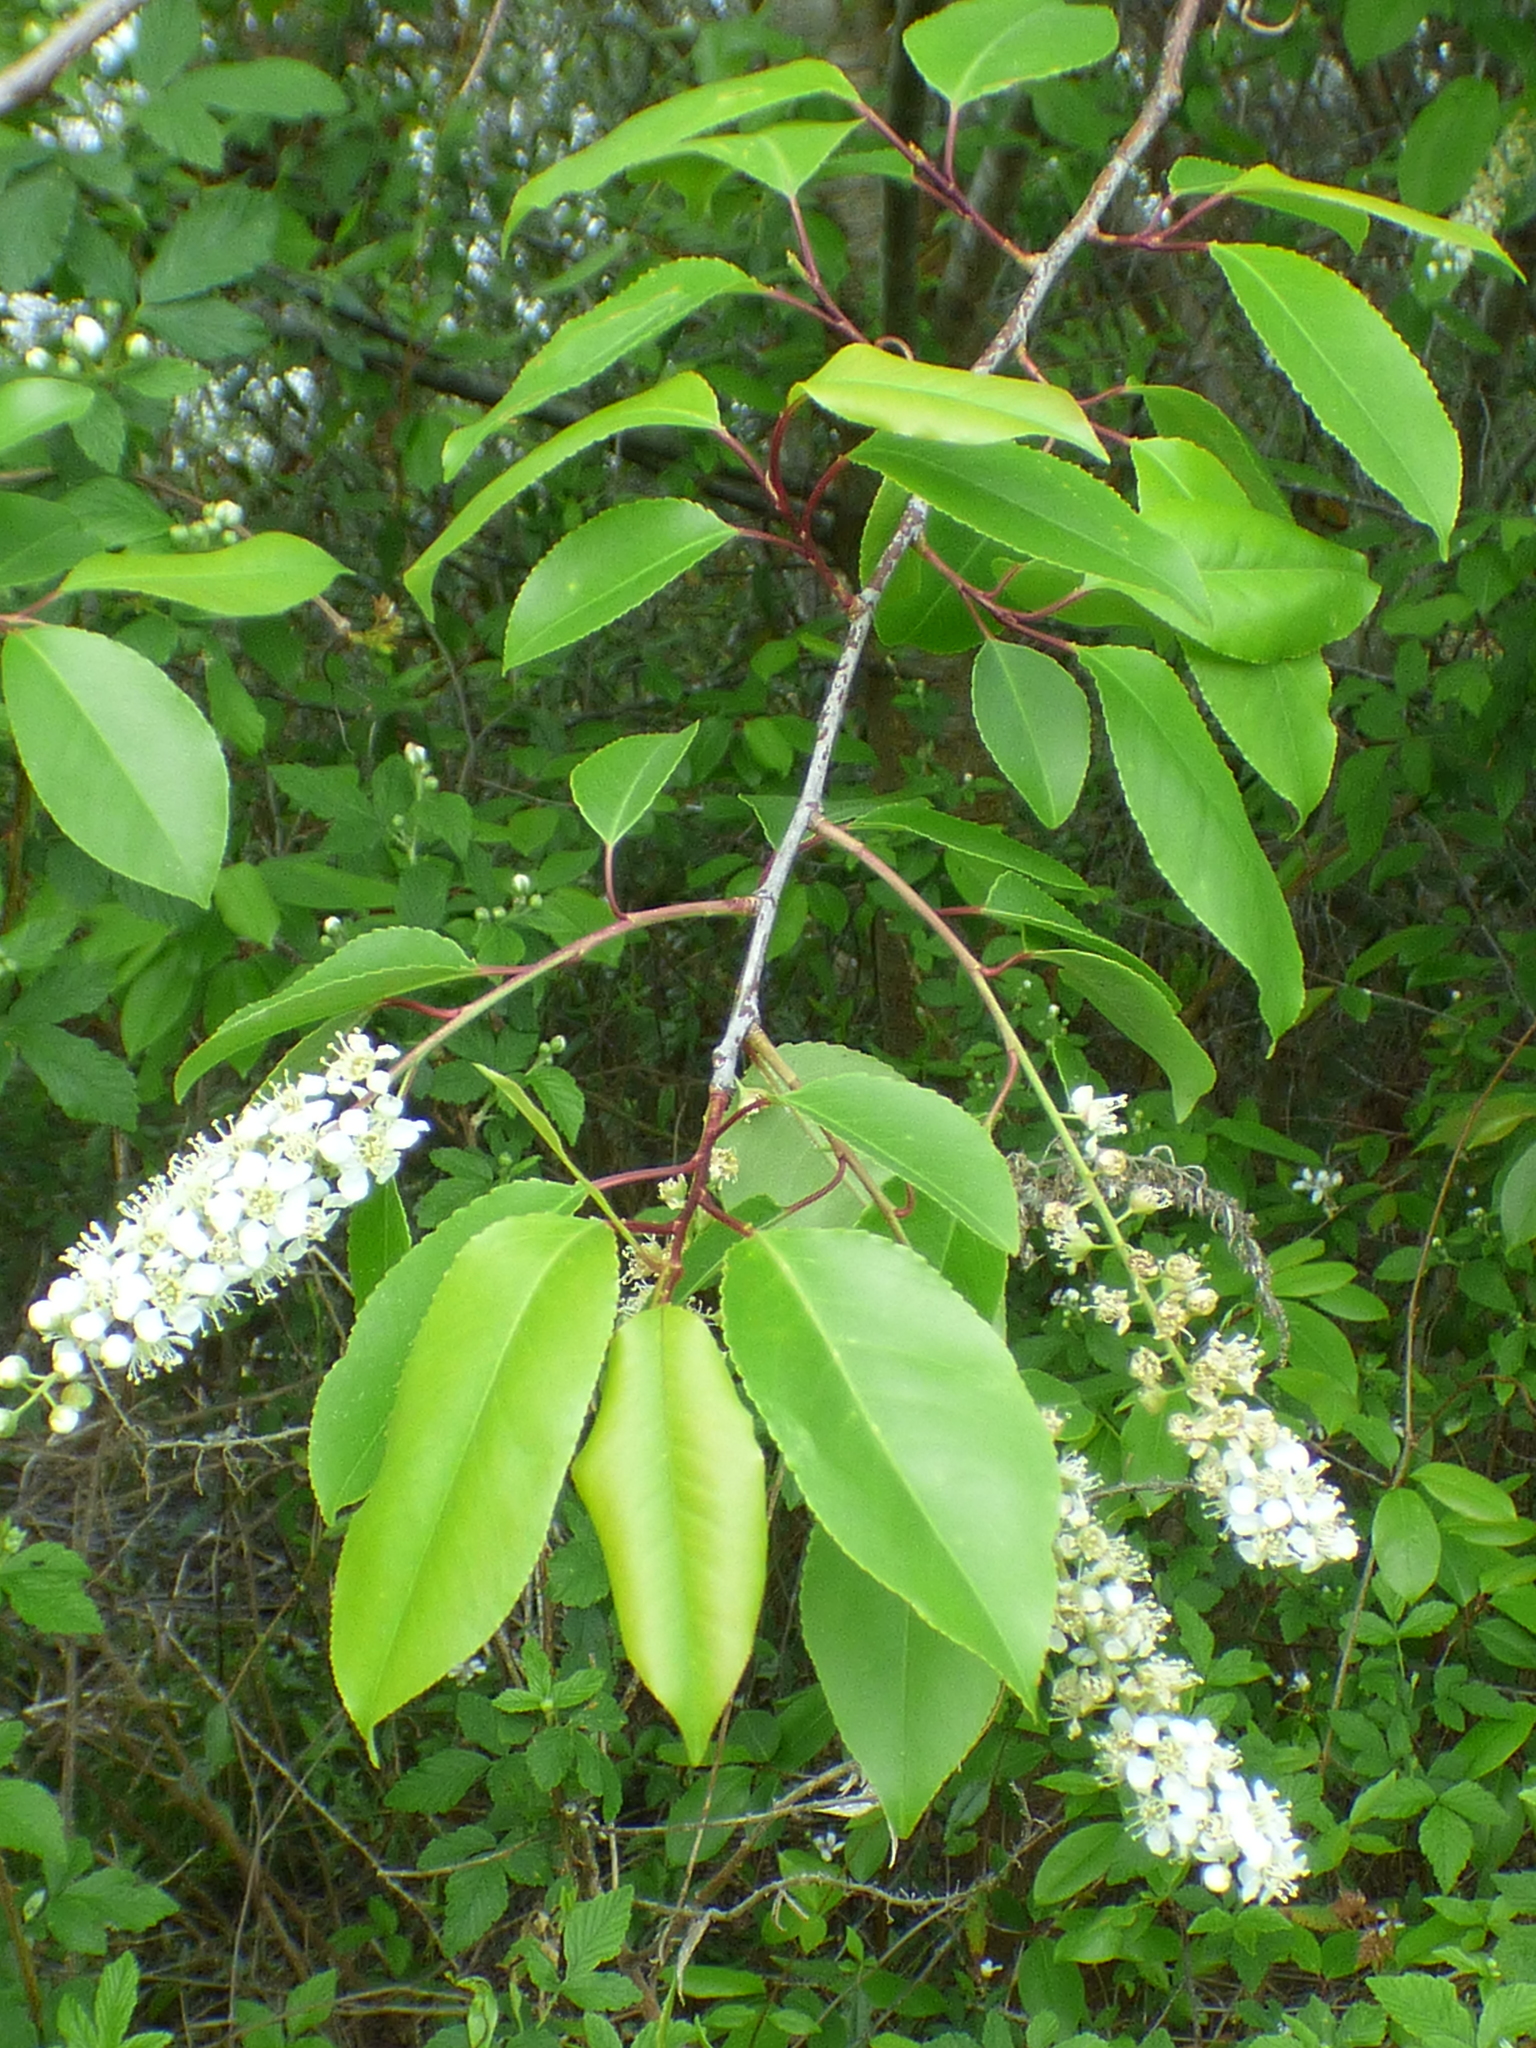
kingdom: Plantae
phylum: Tracheophyta
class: Magnoliopsida
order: Rosales
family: Rosaceae
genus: Prunus
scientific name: Prunus serotina
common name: Black cherry
